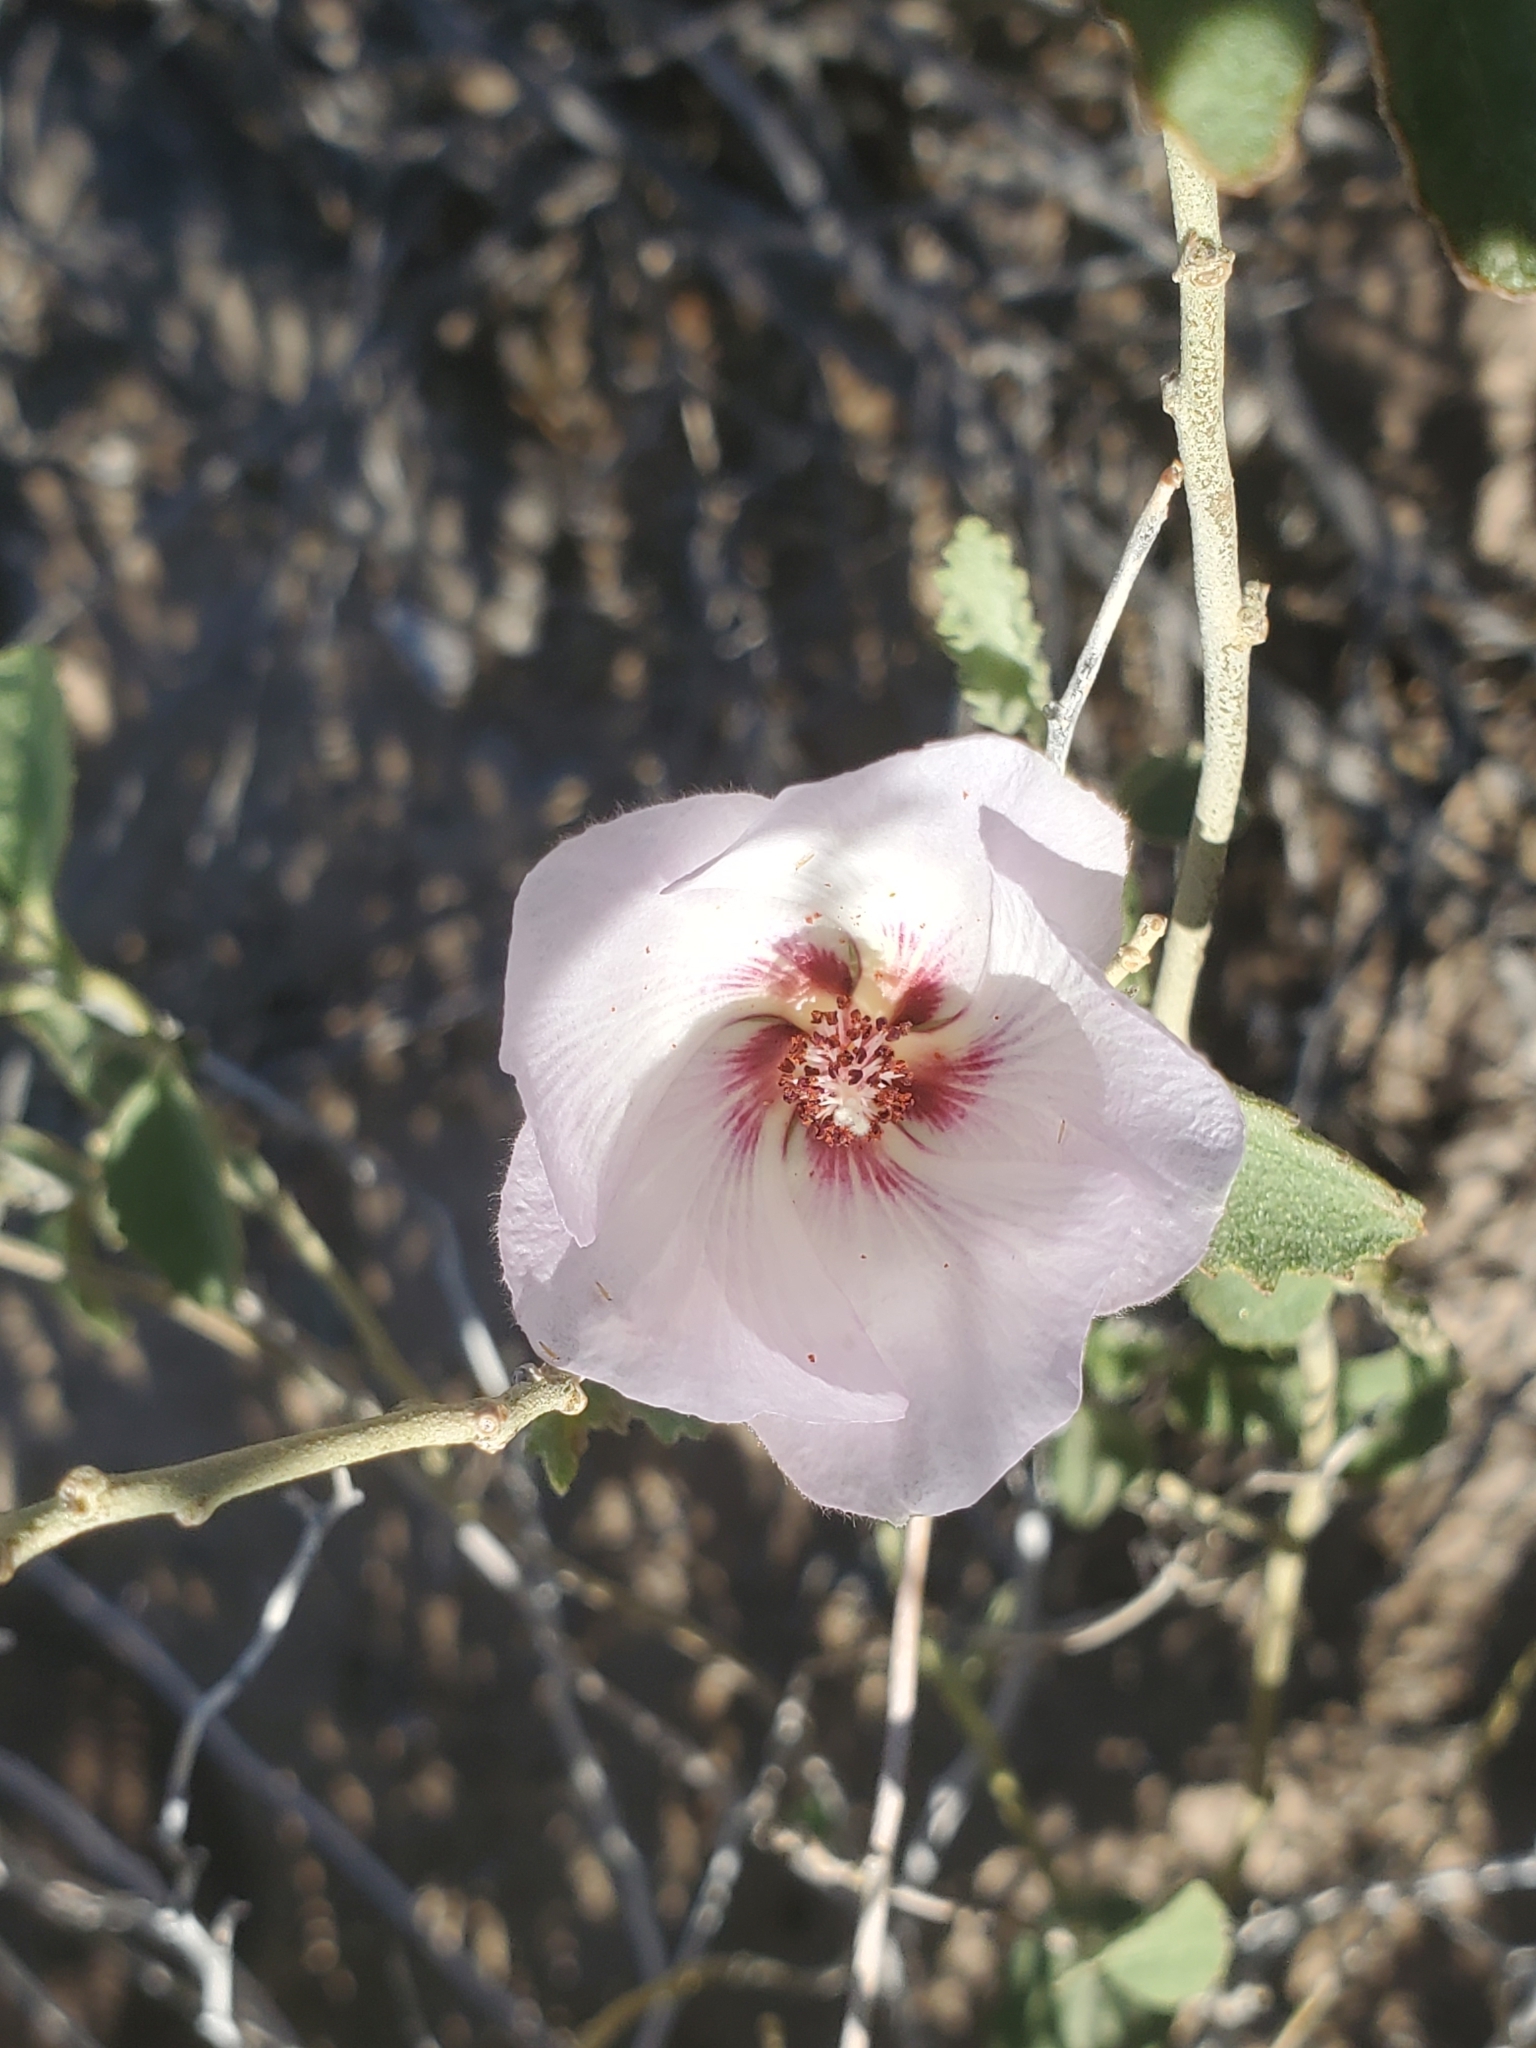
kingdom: Plantae
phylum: Tracheophyta
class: Magnoliopsida
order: Malvales
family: Malvaceae
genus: Hibiscus
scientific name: Hibiscus denudatus
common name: Paleface
